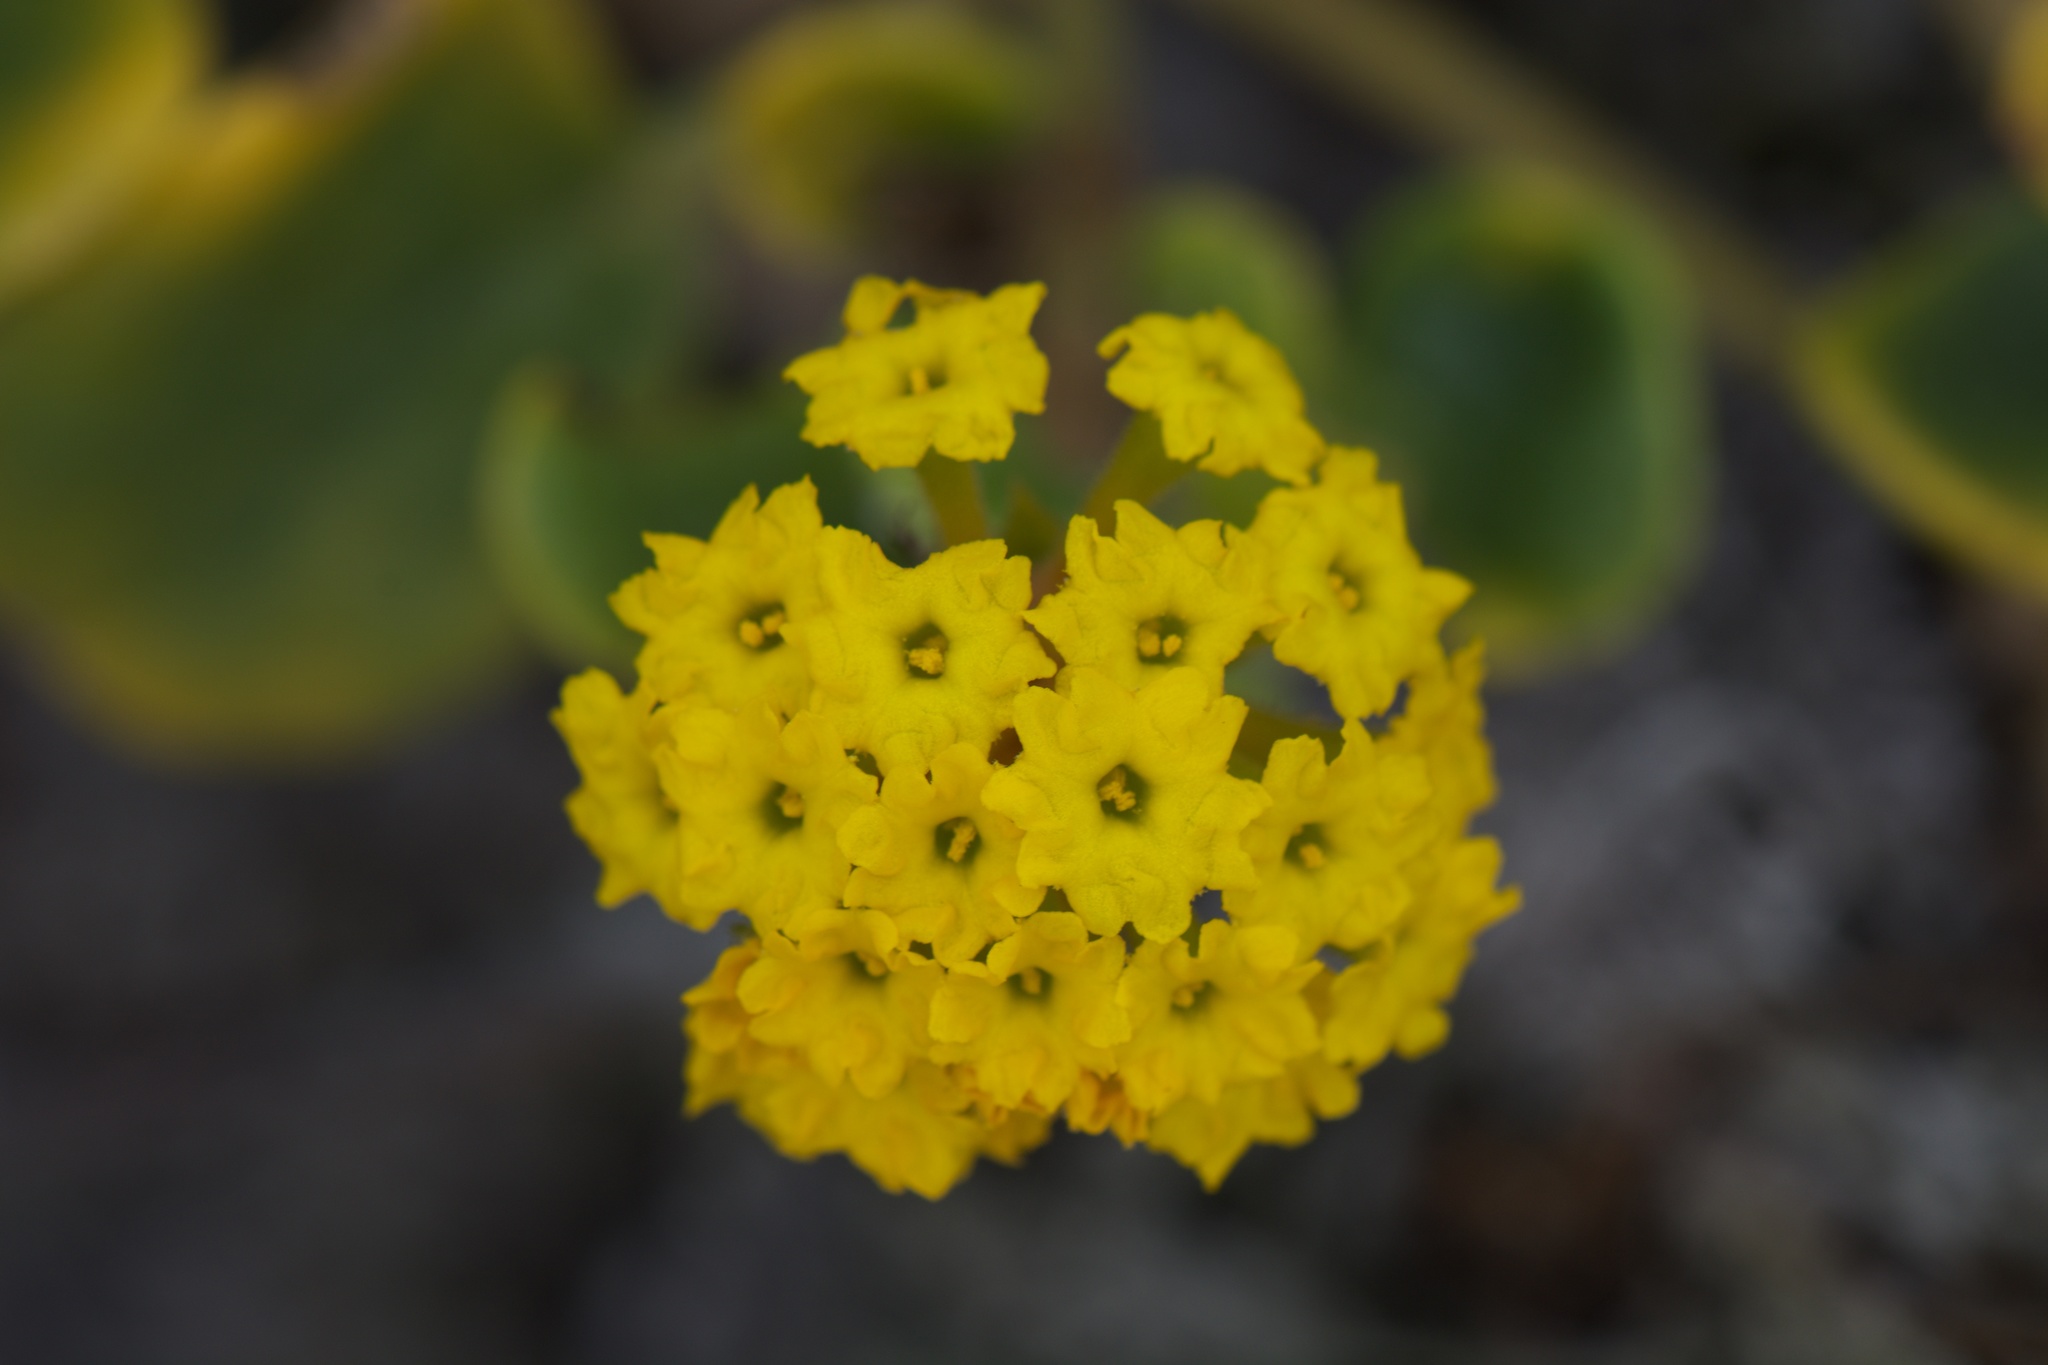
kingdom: Plantae
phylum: Tracheophyta
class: Magnoliopsida
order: Caryophyllales
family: Nyctaginaceae
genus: Abronia
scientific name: Abronia latifolia
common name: Yellow sand-verbena
